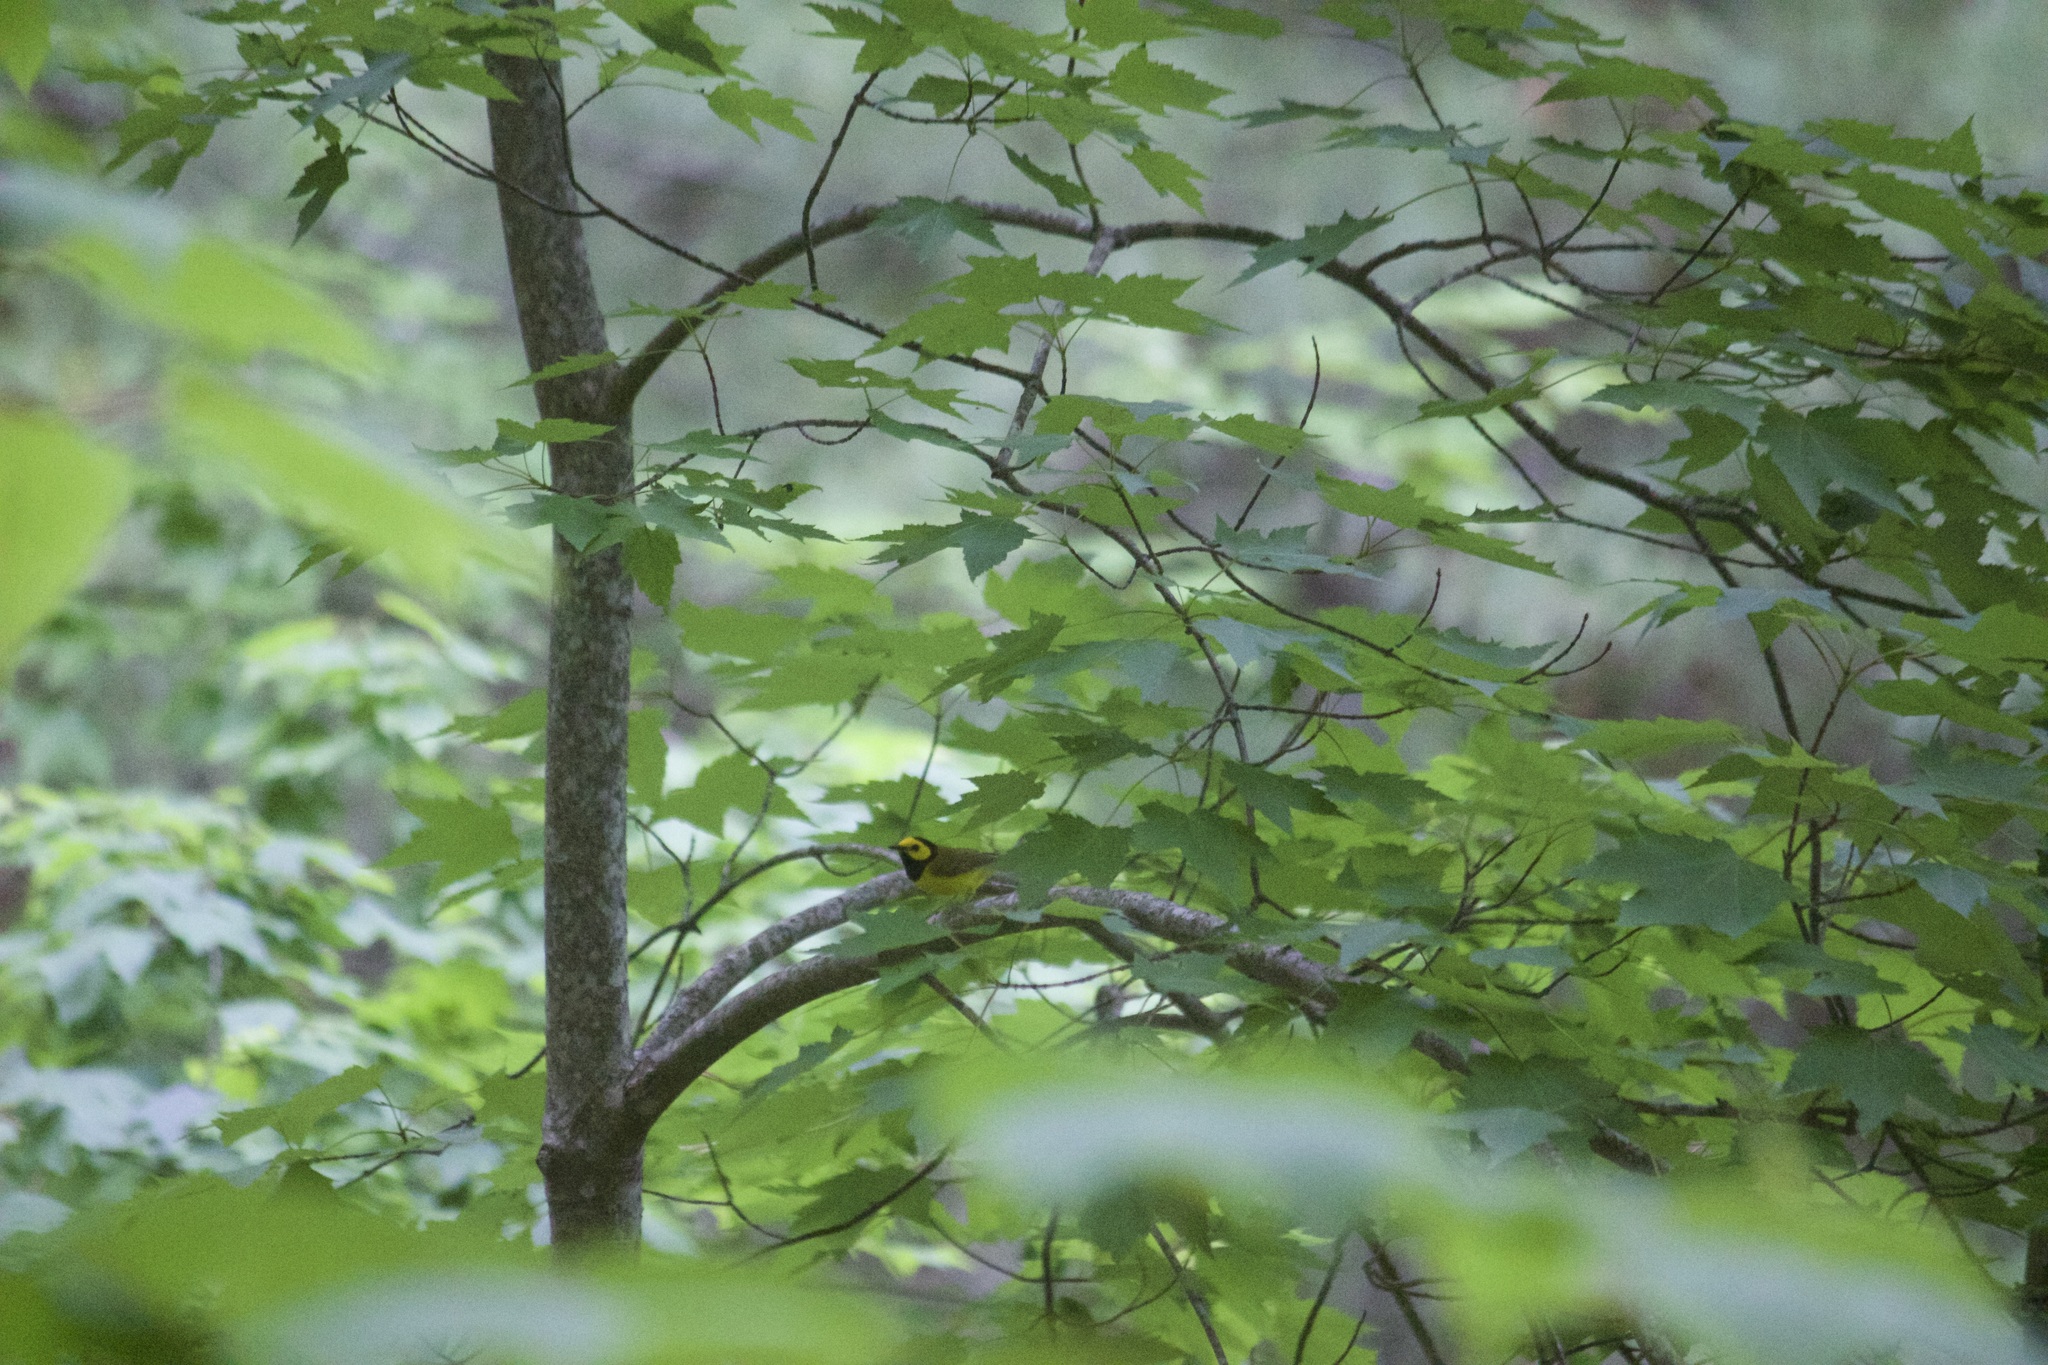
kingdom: Animalia
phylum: Chordata
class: Aves
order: Passeriformes
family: Parulidae
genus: Setophaga
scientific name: Setophaga citrina
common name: Hooded warbler
